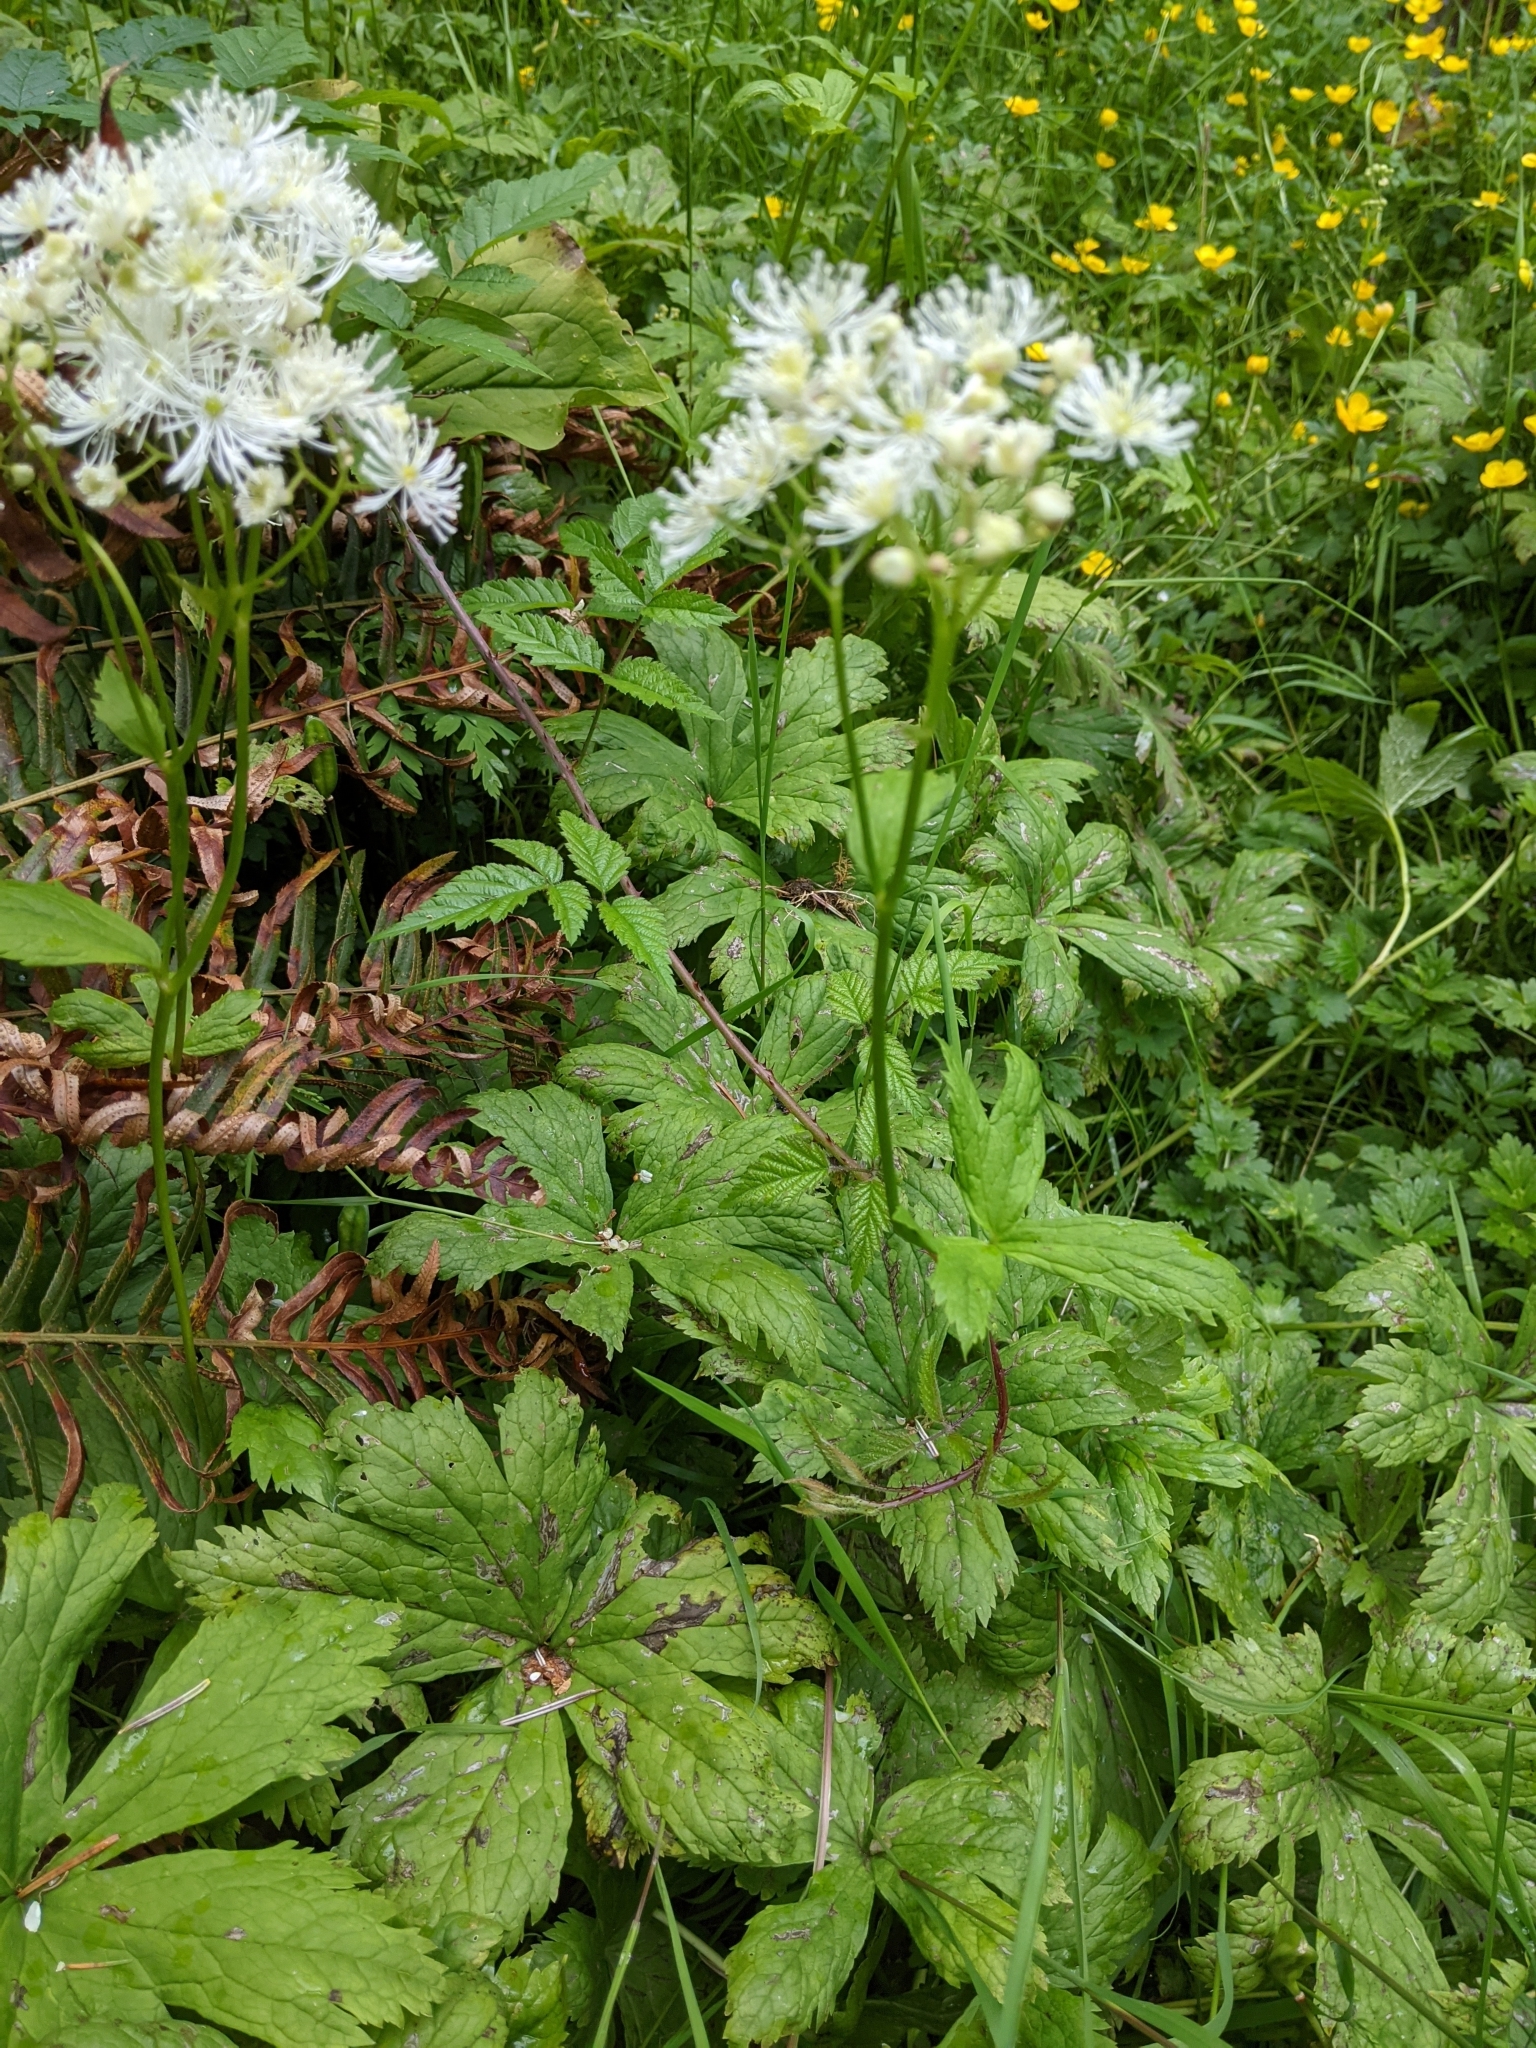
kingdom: Plantae
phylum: Tracheophyta
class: Magnoliopsida
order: Ranunculales
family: Ranunculaceae
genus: Trautvetteria
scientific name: Trautvetteria carolinensis
